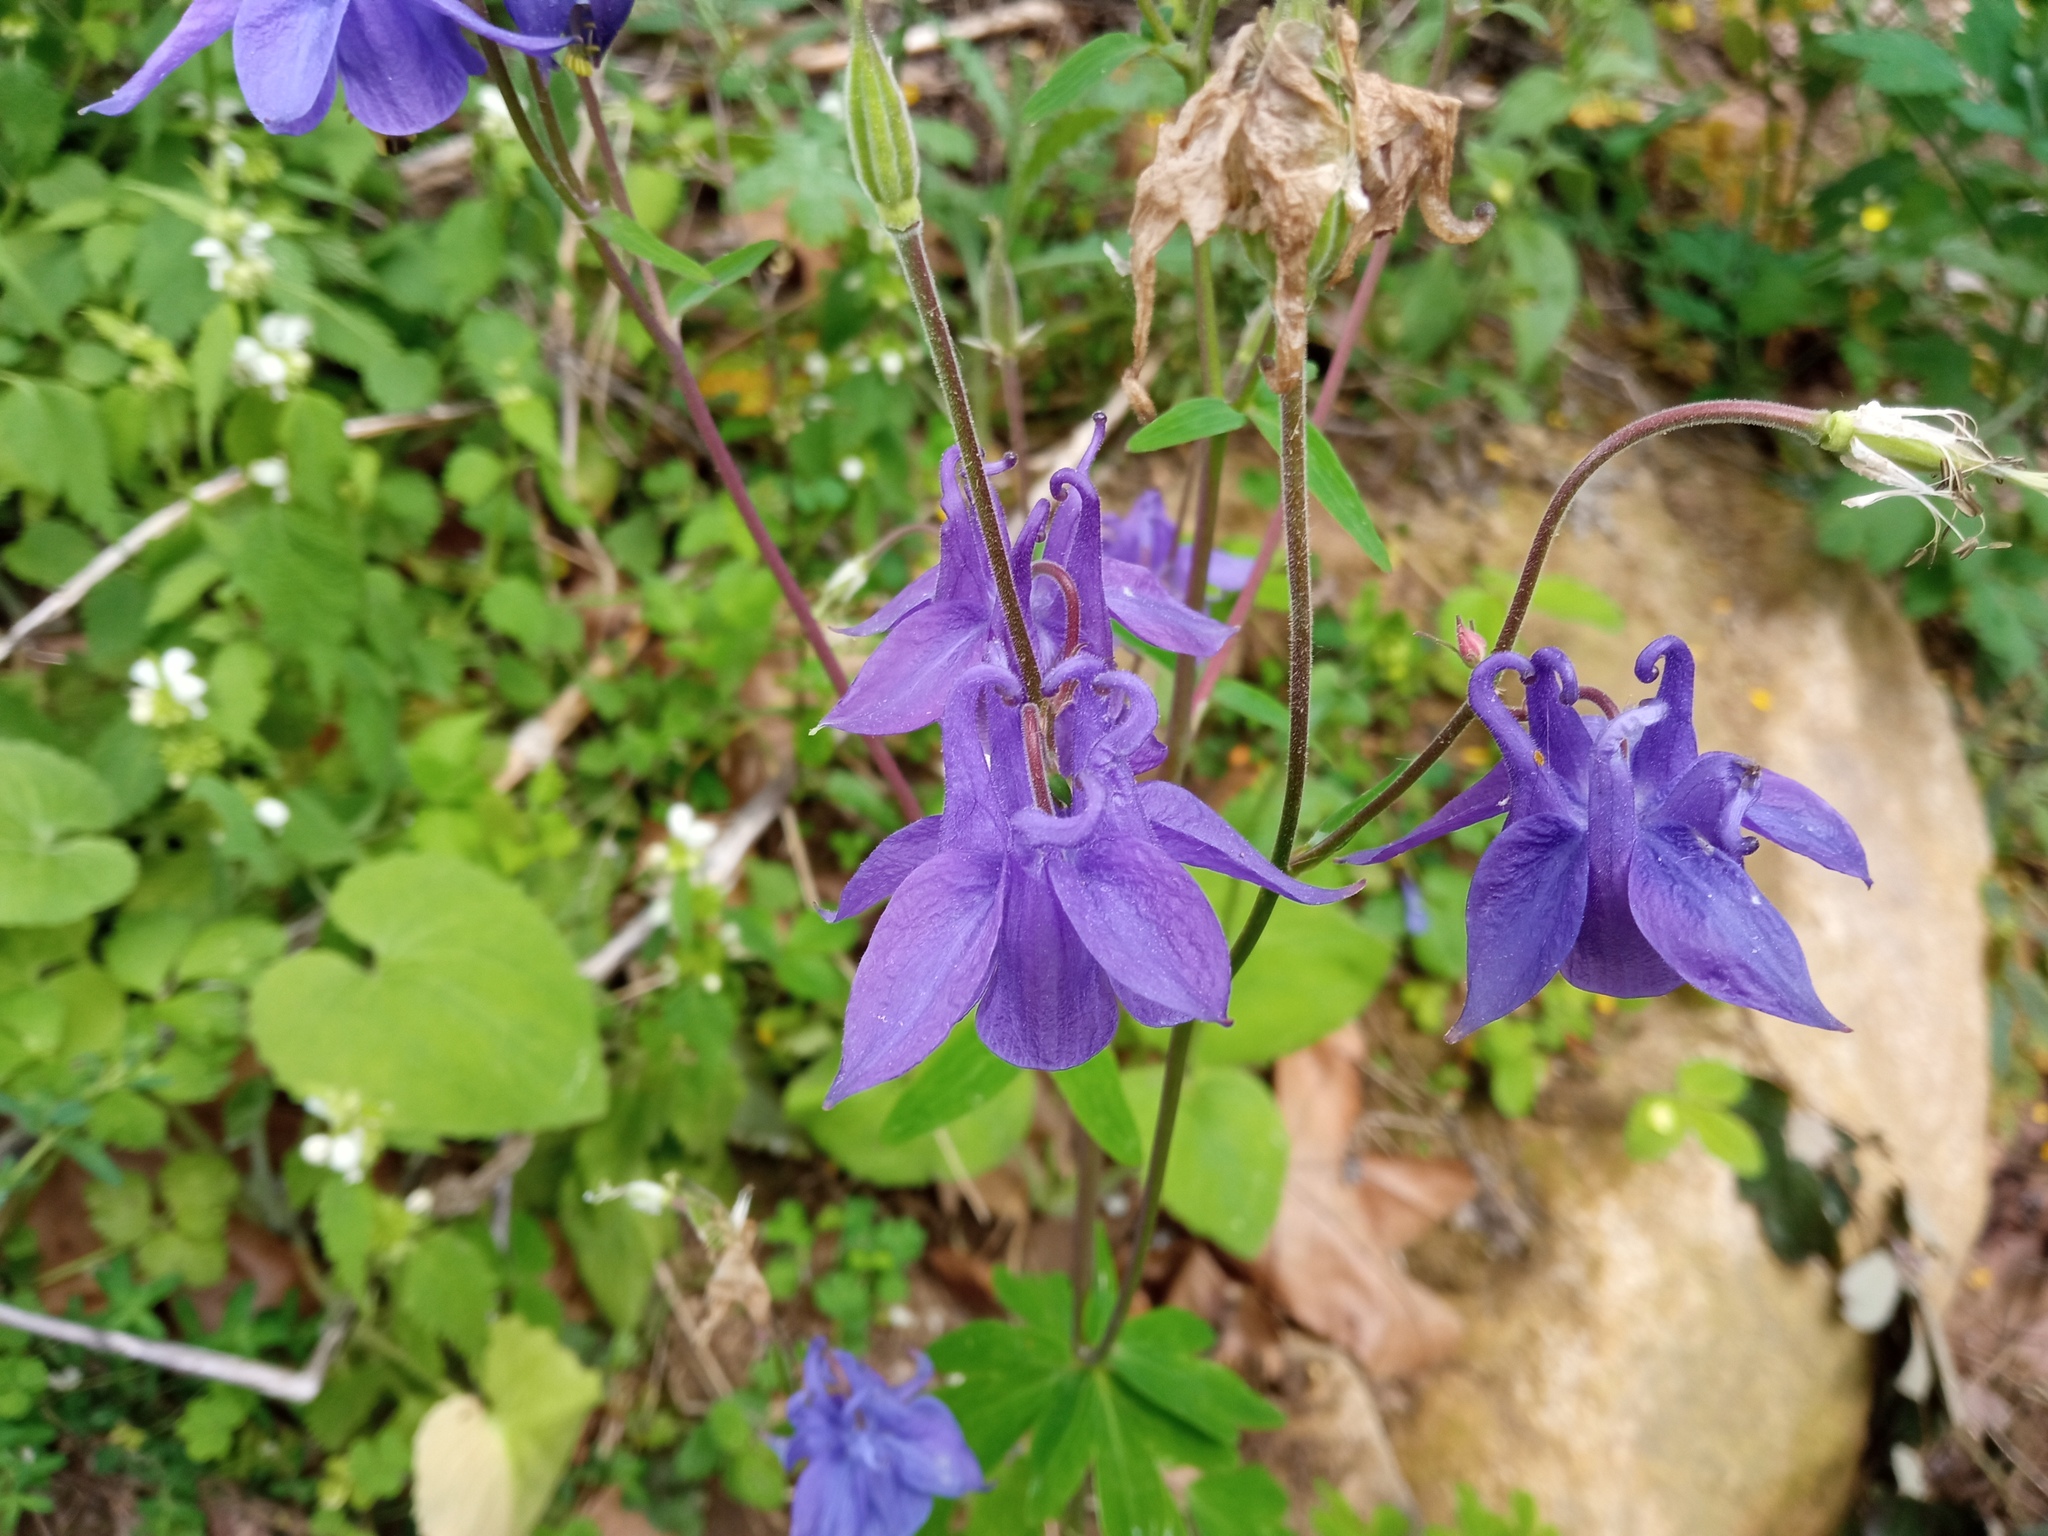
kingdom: Plantae
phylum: Tracheophyta
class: Magnoliopsida
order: Ranunculales
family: Ranunculaceae
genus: Aquilegia
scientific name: Aquilegia vulgaris
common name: Columbine
